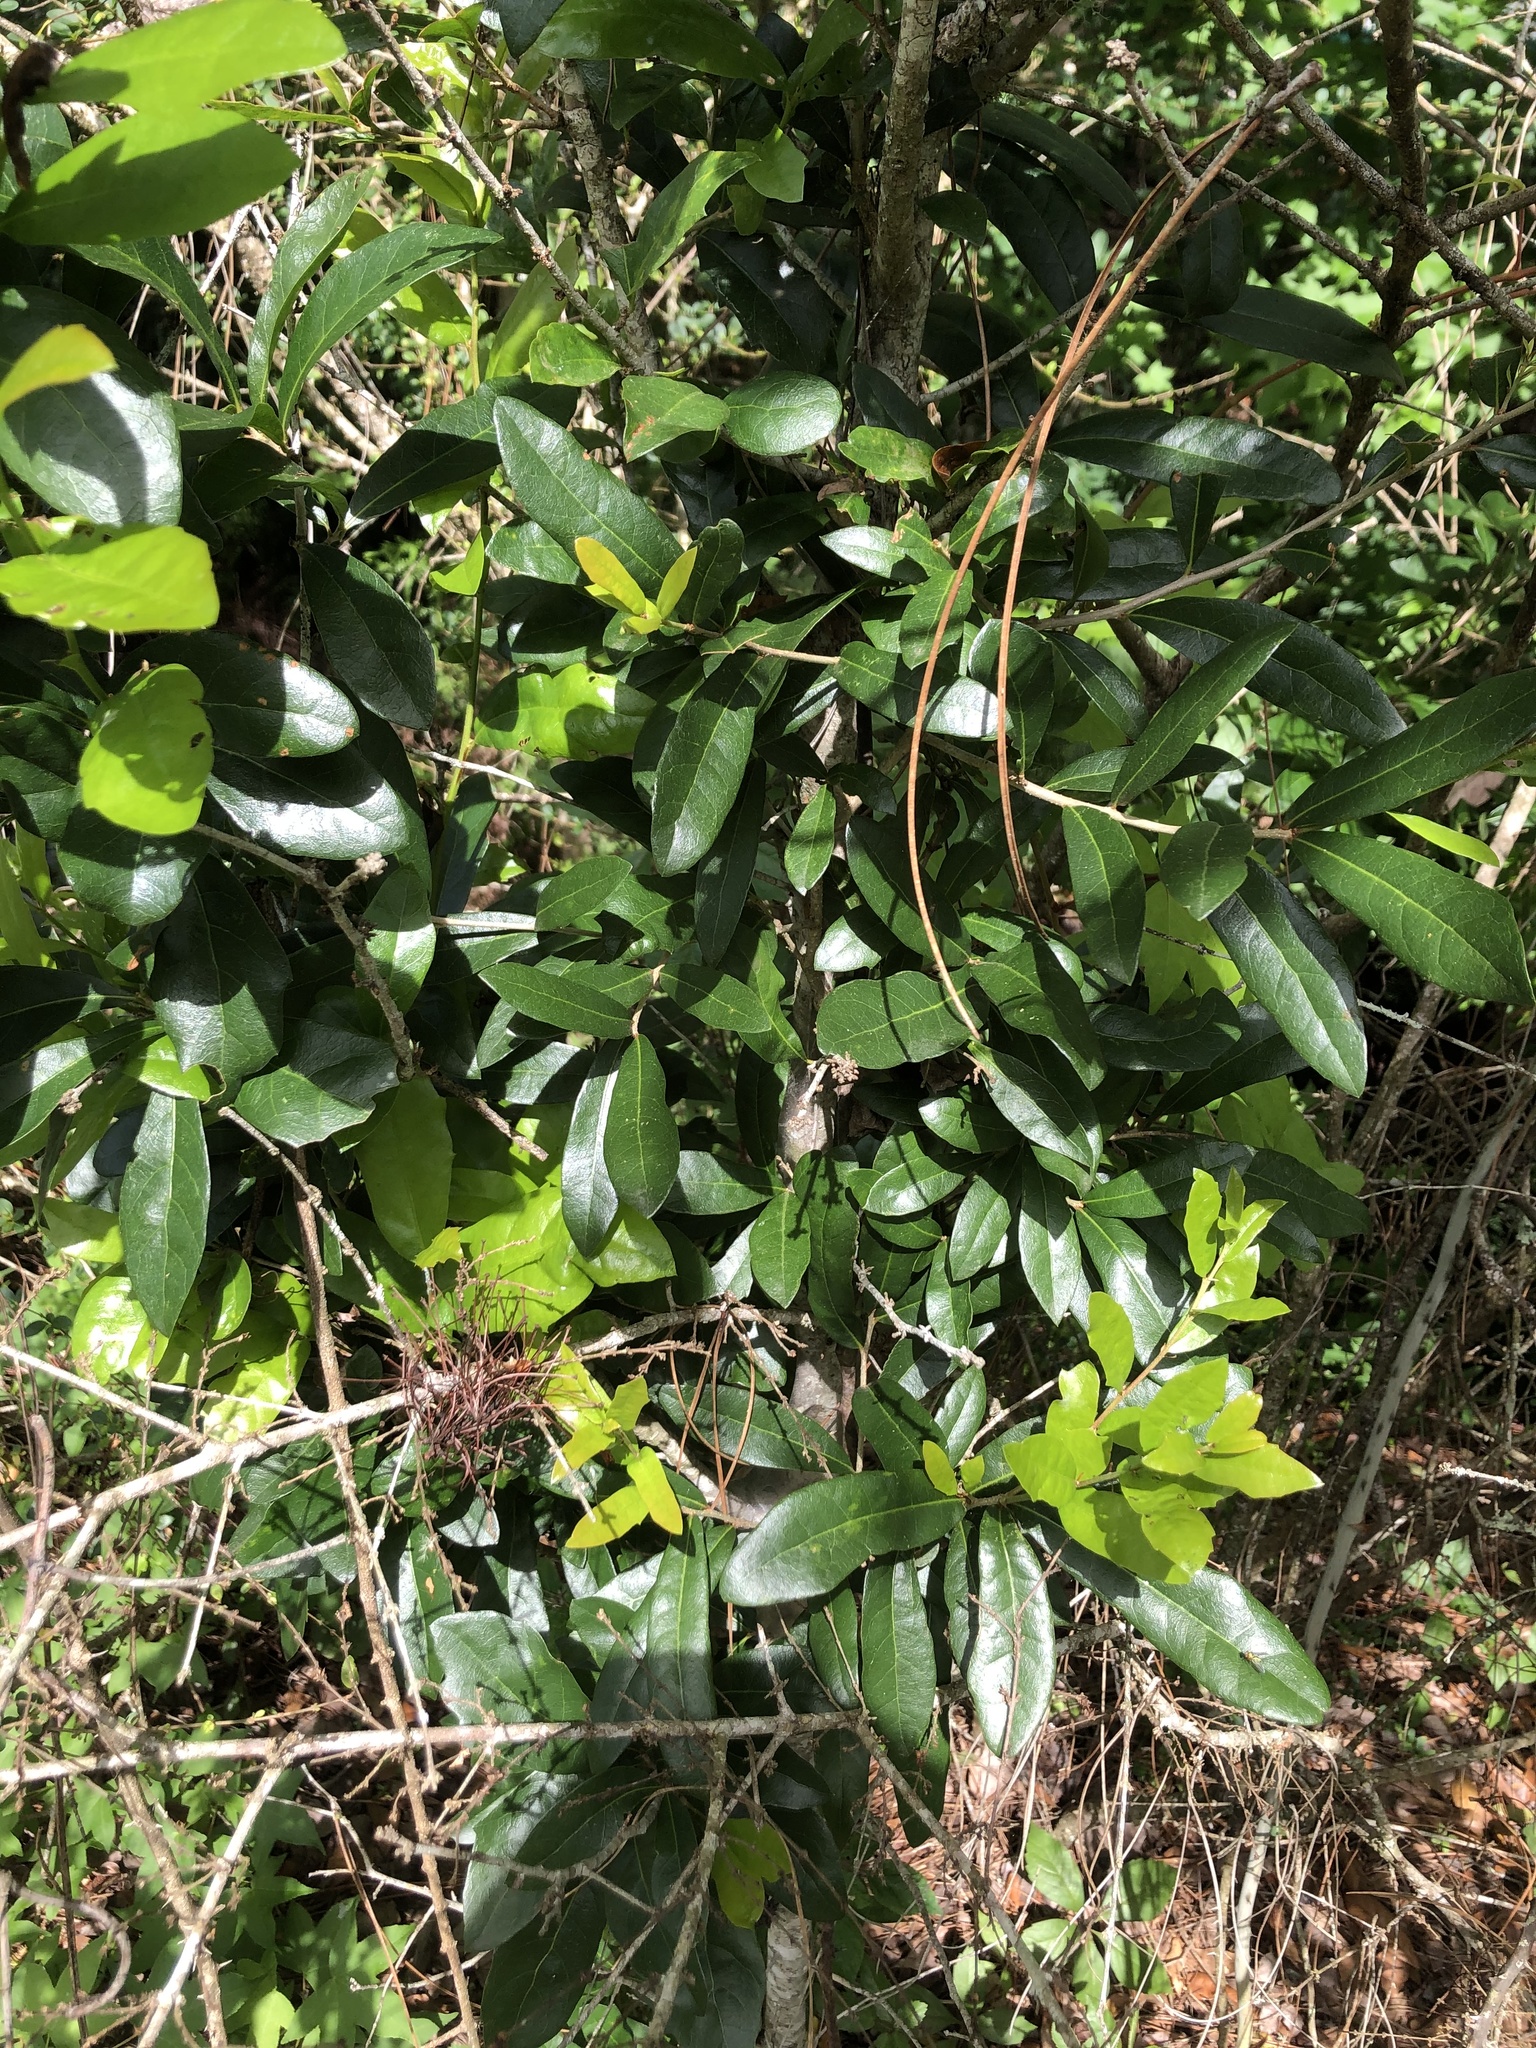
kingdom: Plantae
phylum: Tracheophyta
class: Magnoliopsida
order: Fagales
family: Fagaceae
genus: Quercus
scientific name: Quercus virginiana
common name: Southern live oak
